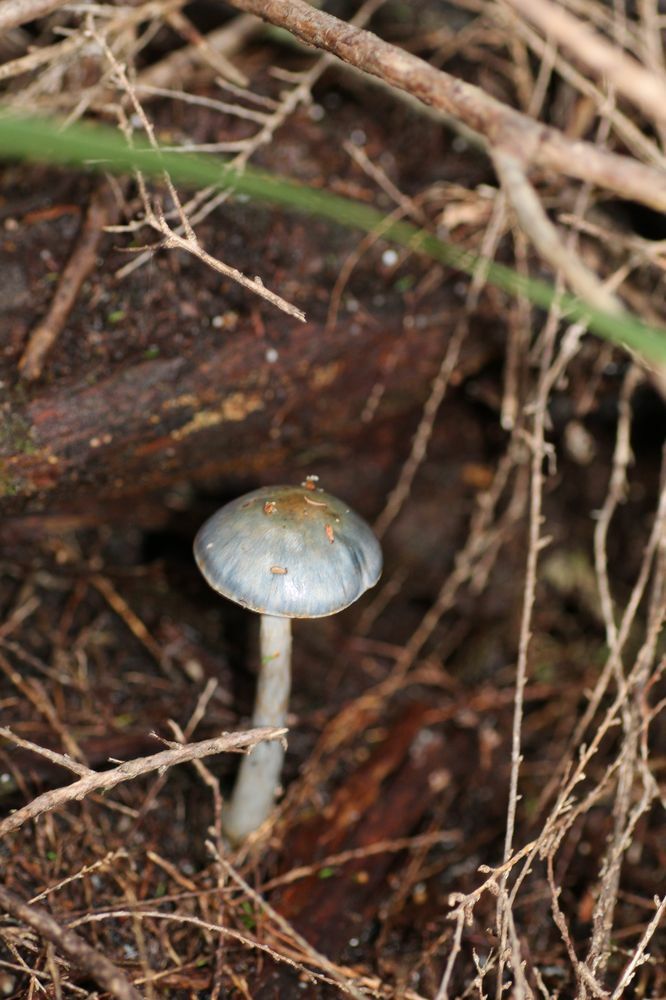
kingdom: Fungi
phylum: Basidiomycota
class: Agaricomycetes
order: Agaricales
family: Cortinariaceae
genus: Cortinarius
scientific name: Cortinarius rotundisporus
